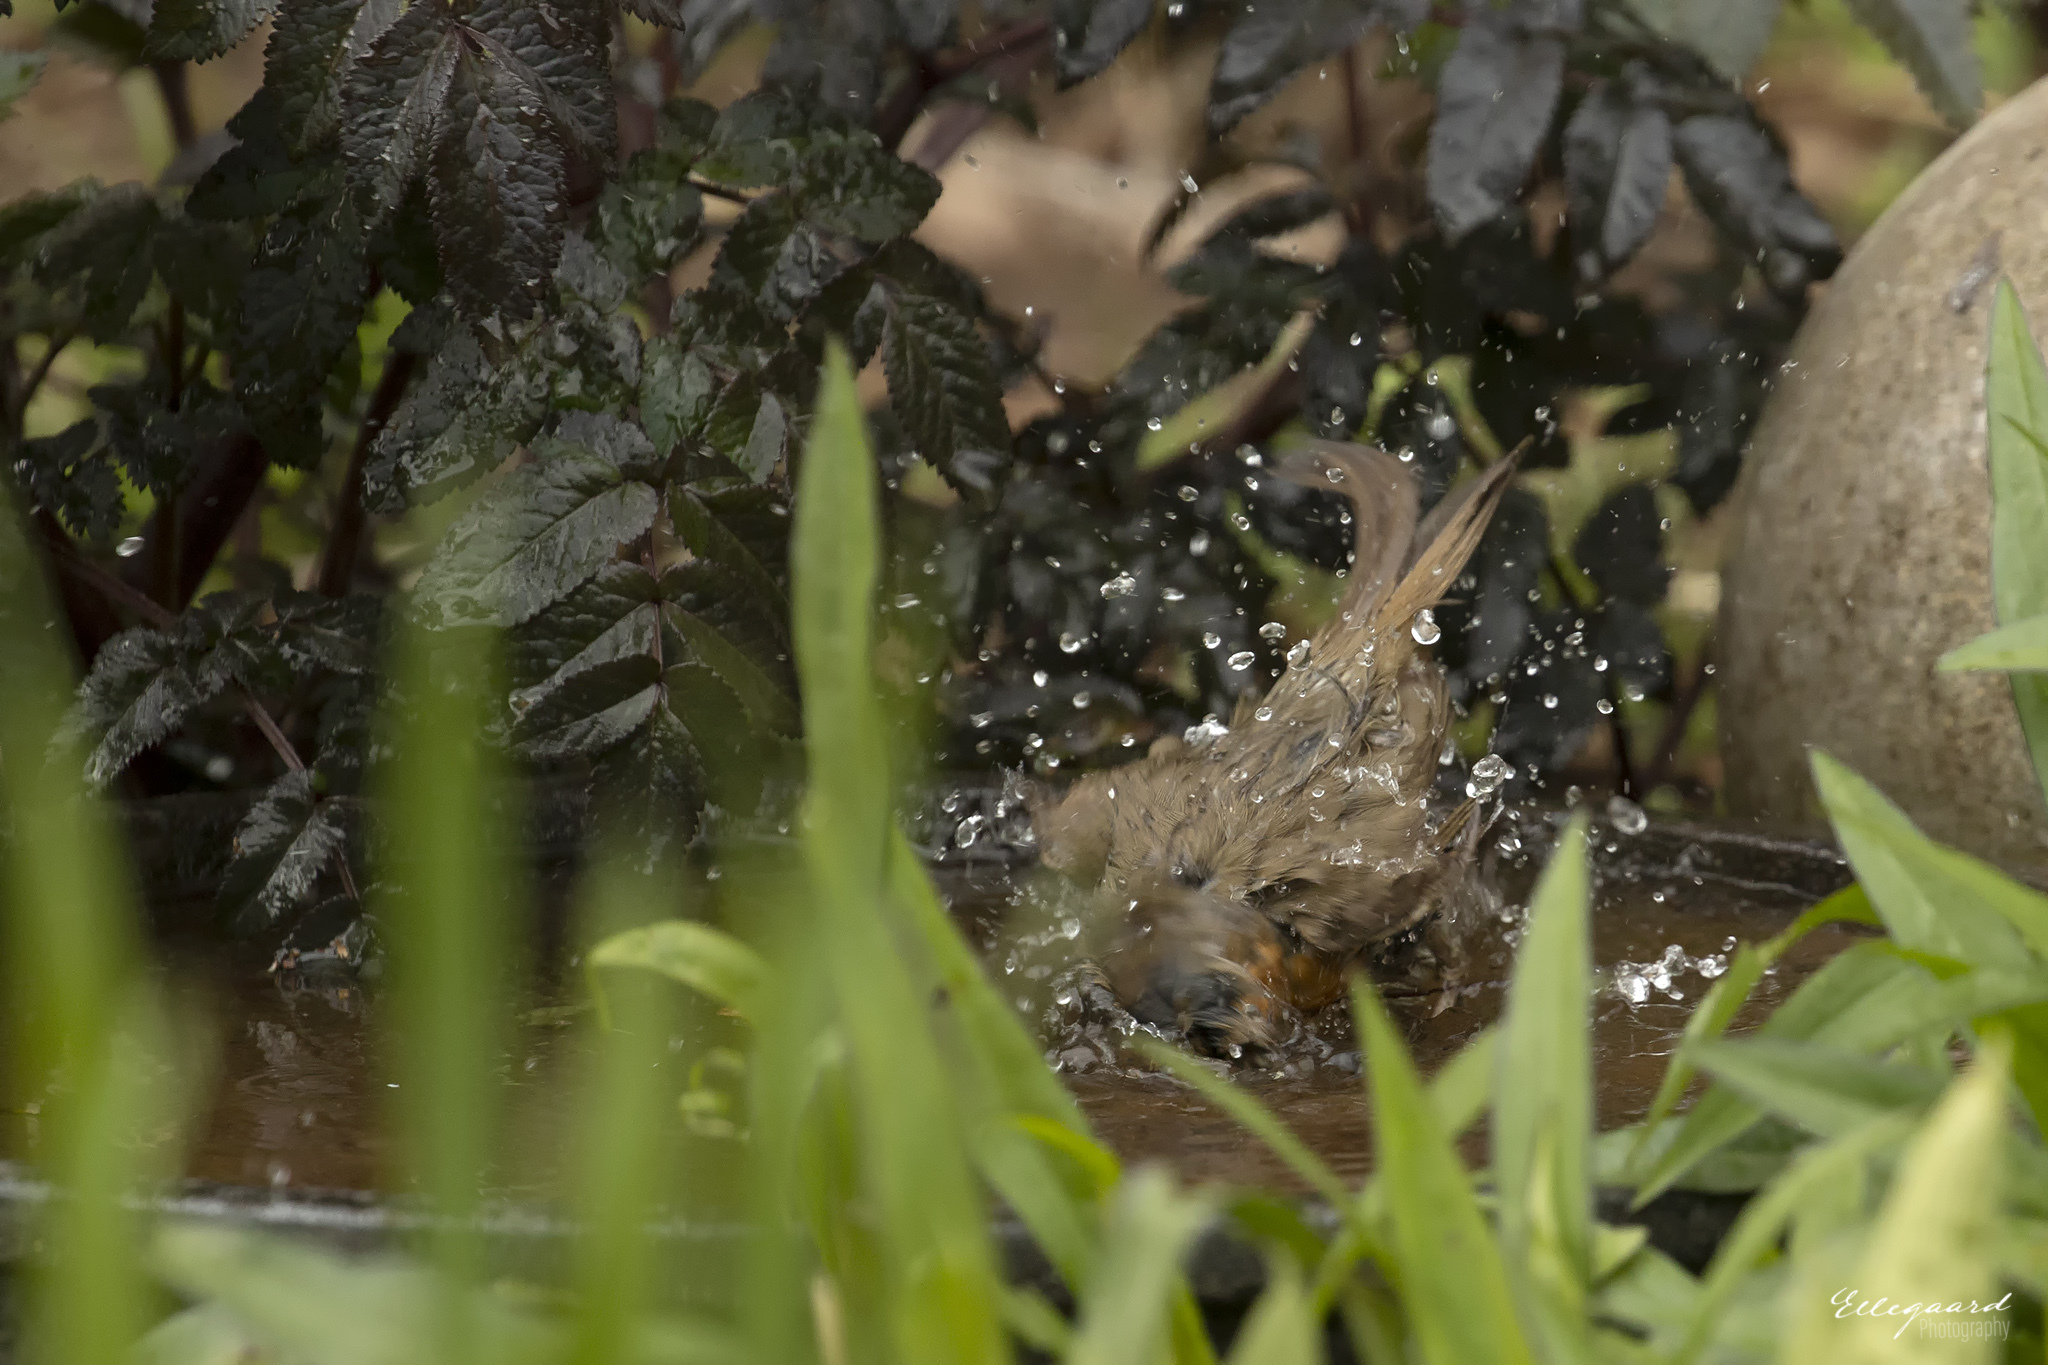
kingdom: Animalia
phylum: Chordata
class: Aves
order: Passeriformes
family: Muscicapidae
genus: Erithacus
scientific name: Erithacus rubecula
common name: European robin
